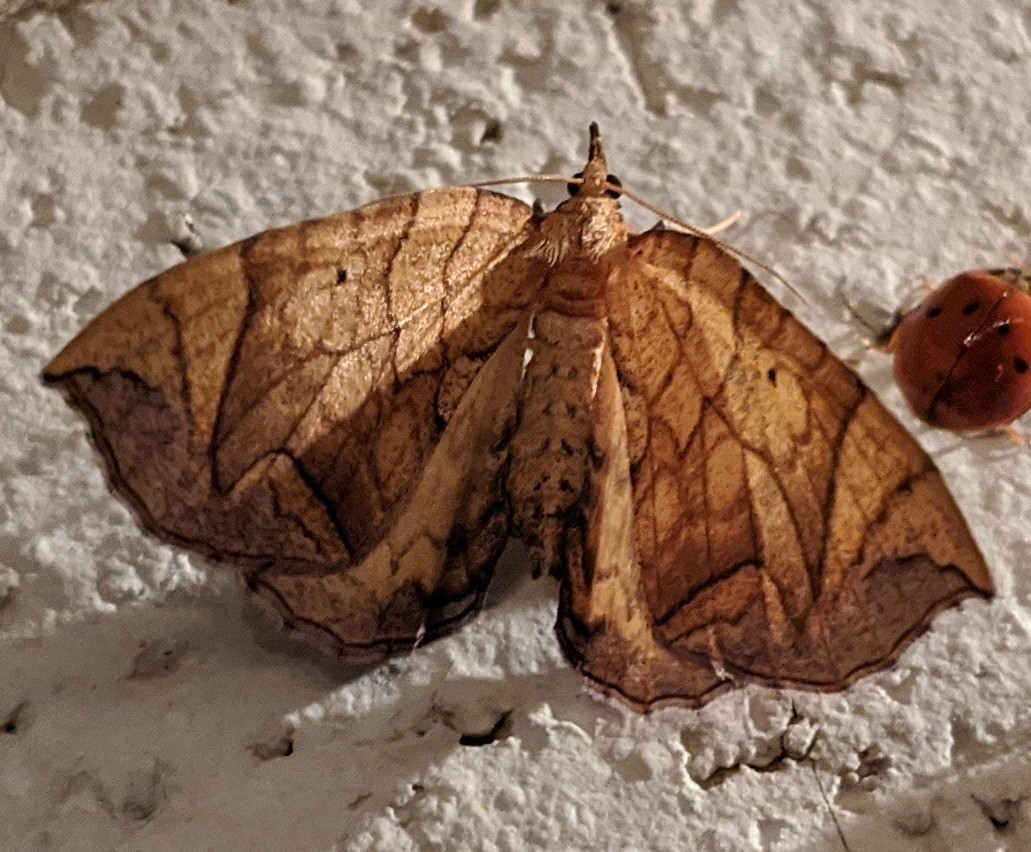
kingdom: Animalia
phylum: Arthropoda
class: Insecta
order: Lepidoptera
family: Geometridae
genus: Eulithis
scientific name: Eulithis
